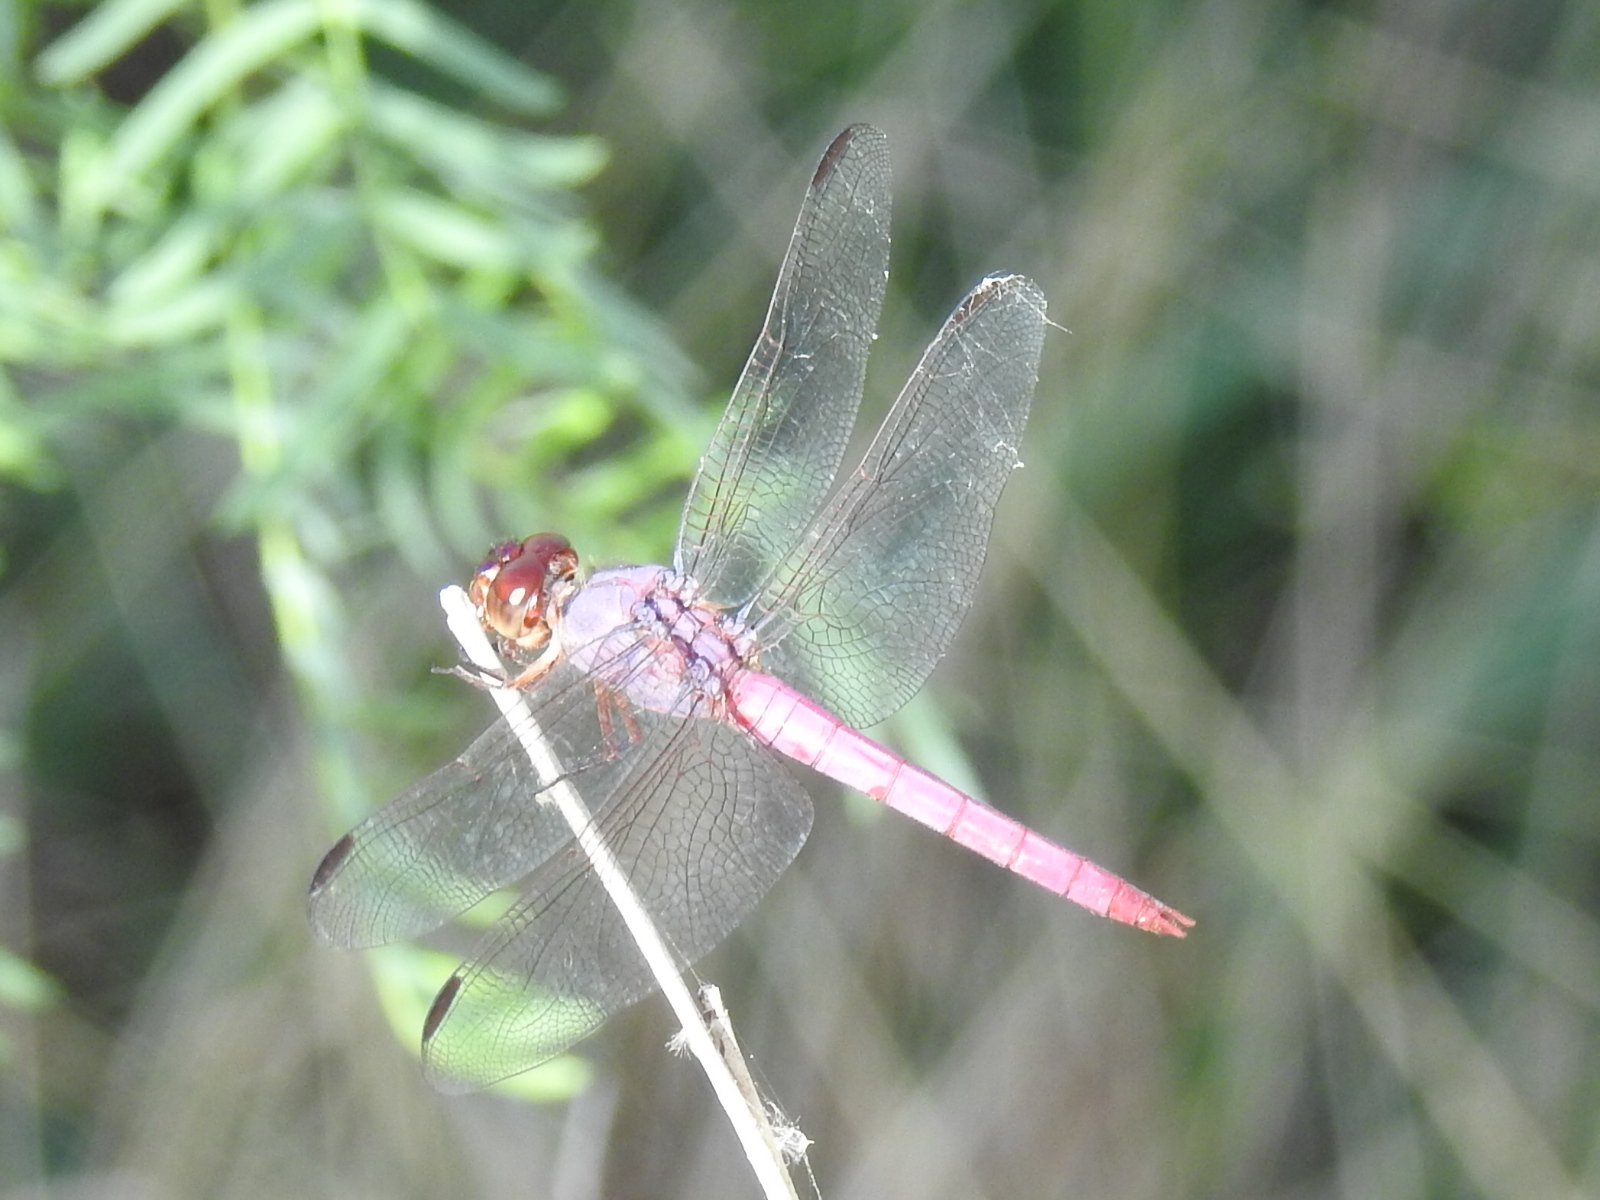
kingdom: Animalia
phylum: Arthropoda
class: Insecta
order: Odonata
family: Libellulidae
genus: Orthemis
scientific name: Orthemis ferruginea
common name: Roseate skimmer
